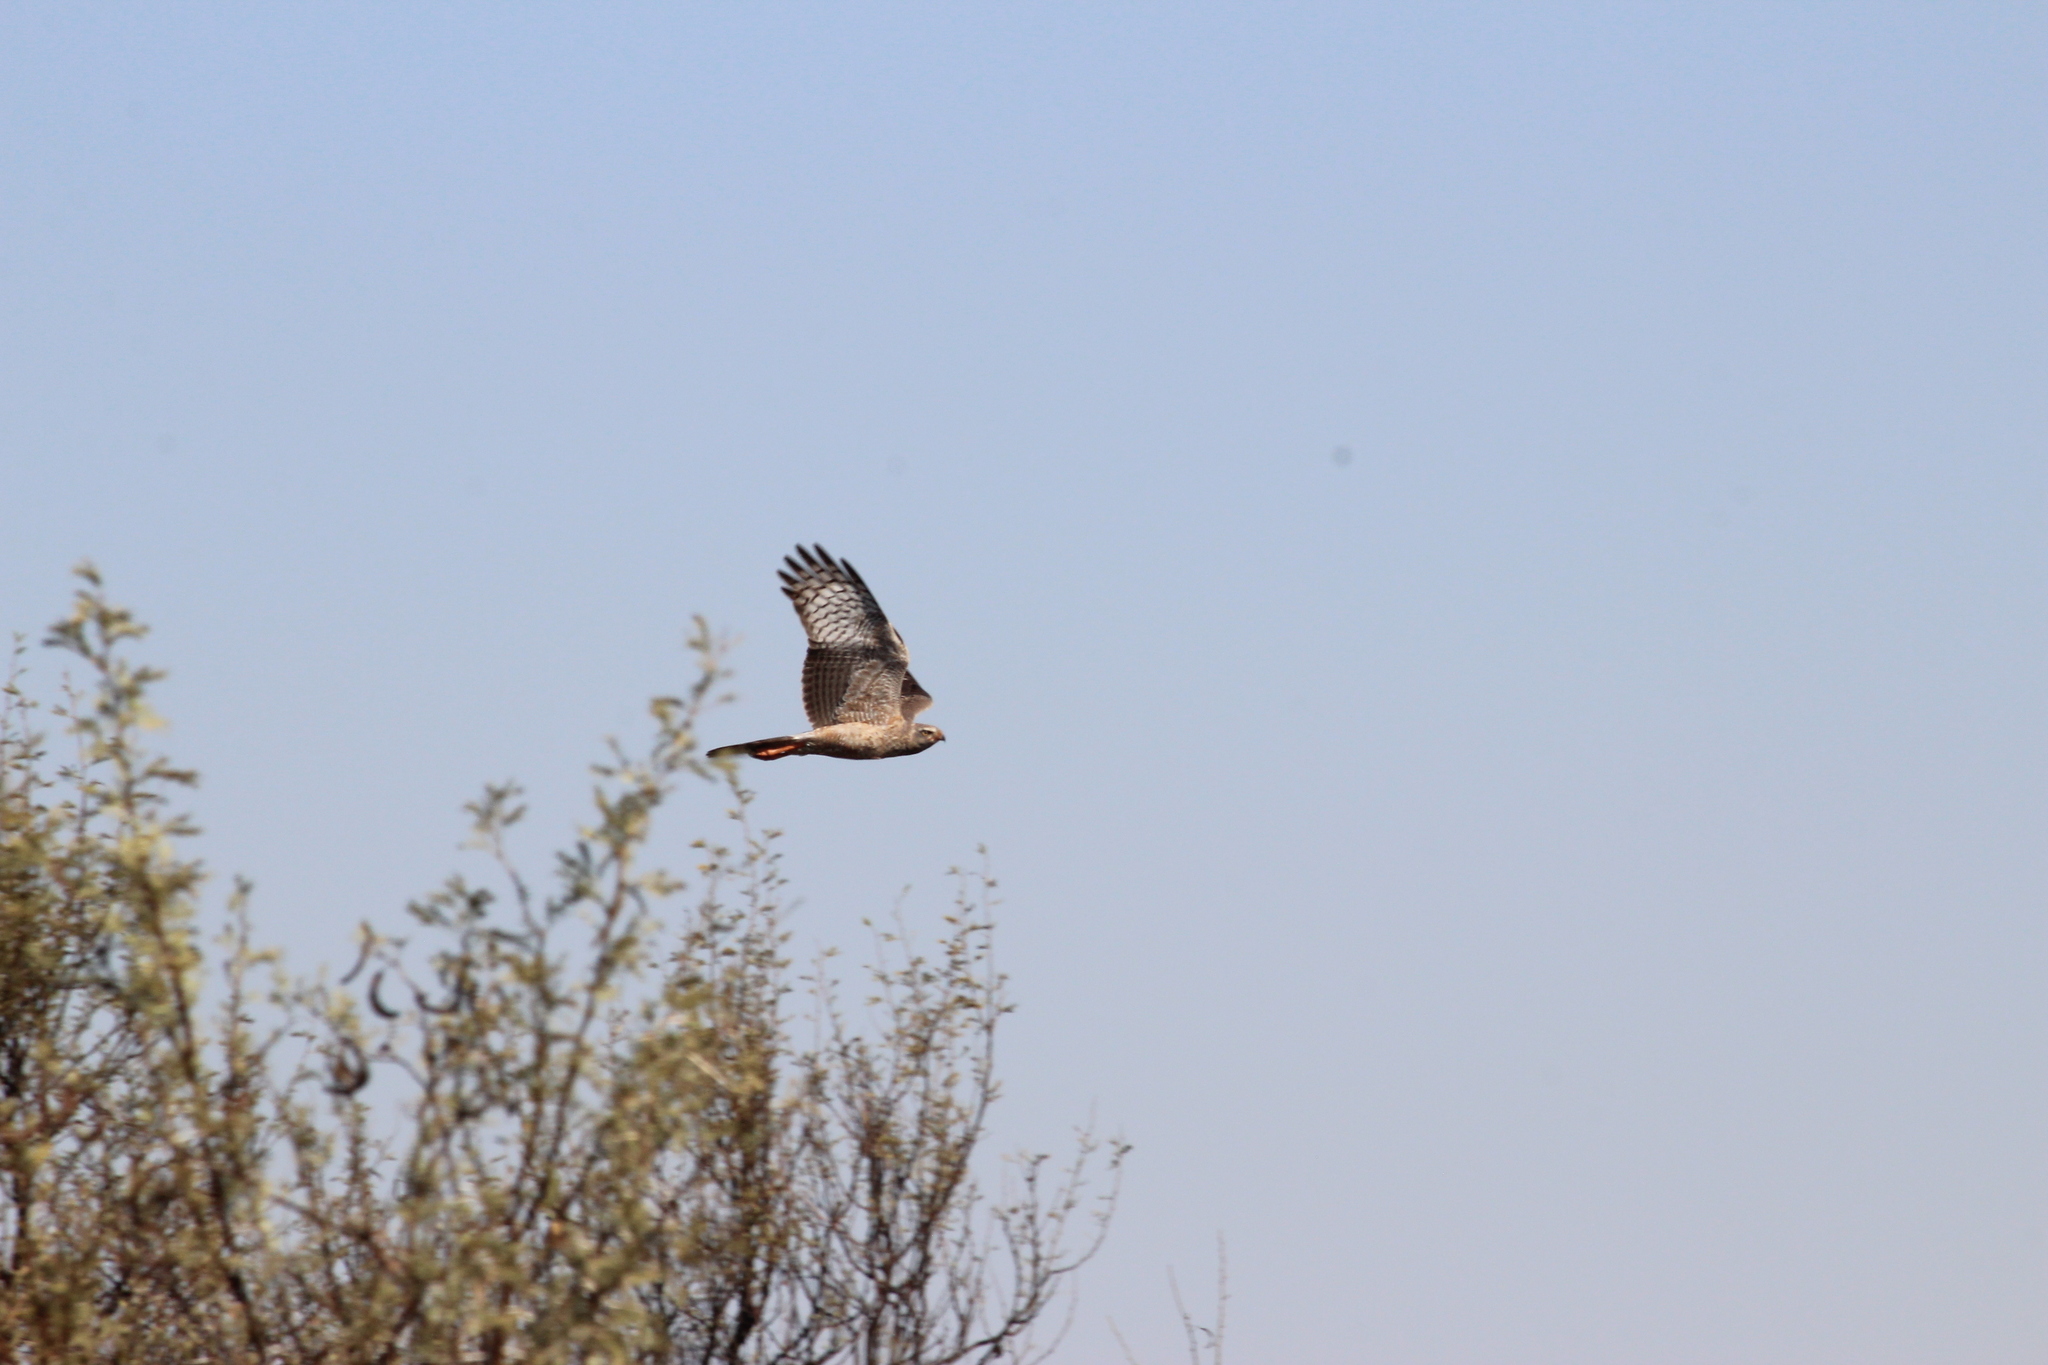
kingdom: Animalia
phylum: Chordata
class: Aves
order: Accipitriformes
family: Accipitridae
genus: Melierax
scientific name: Melierax canorus
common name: Pale chanting-goshawk
